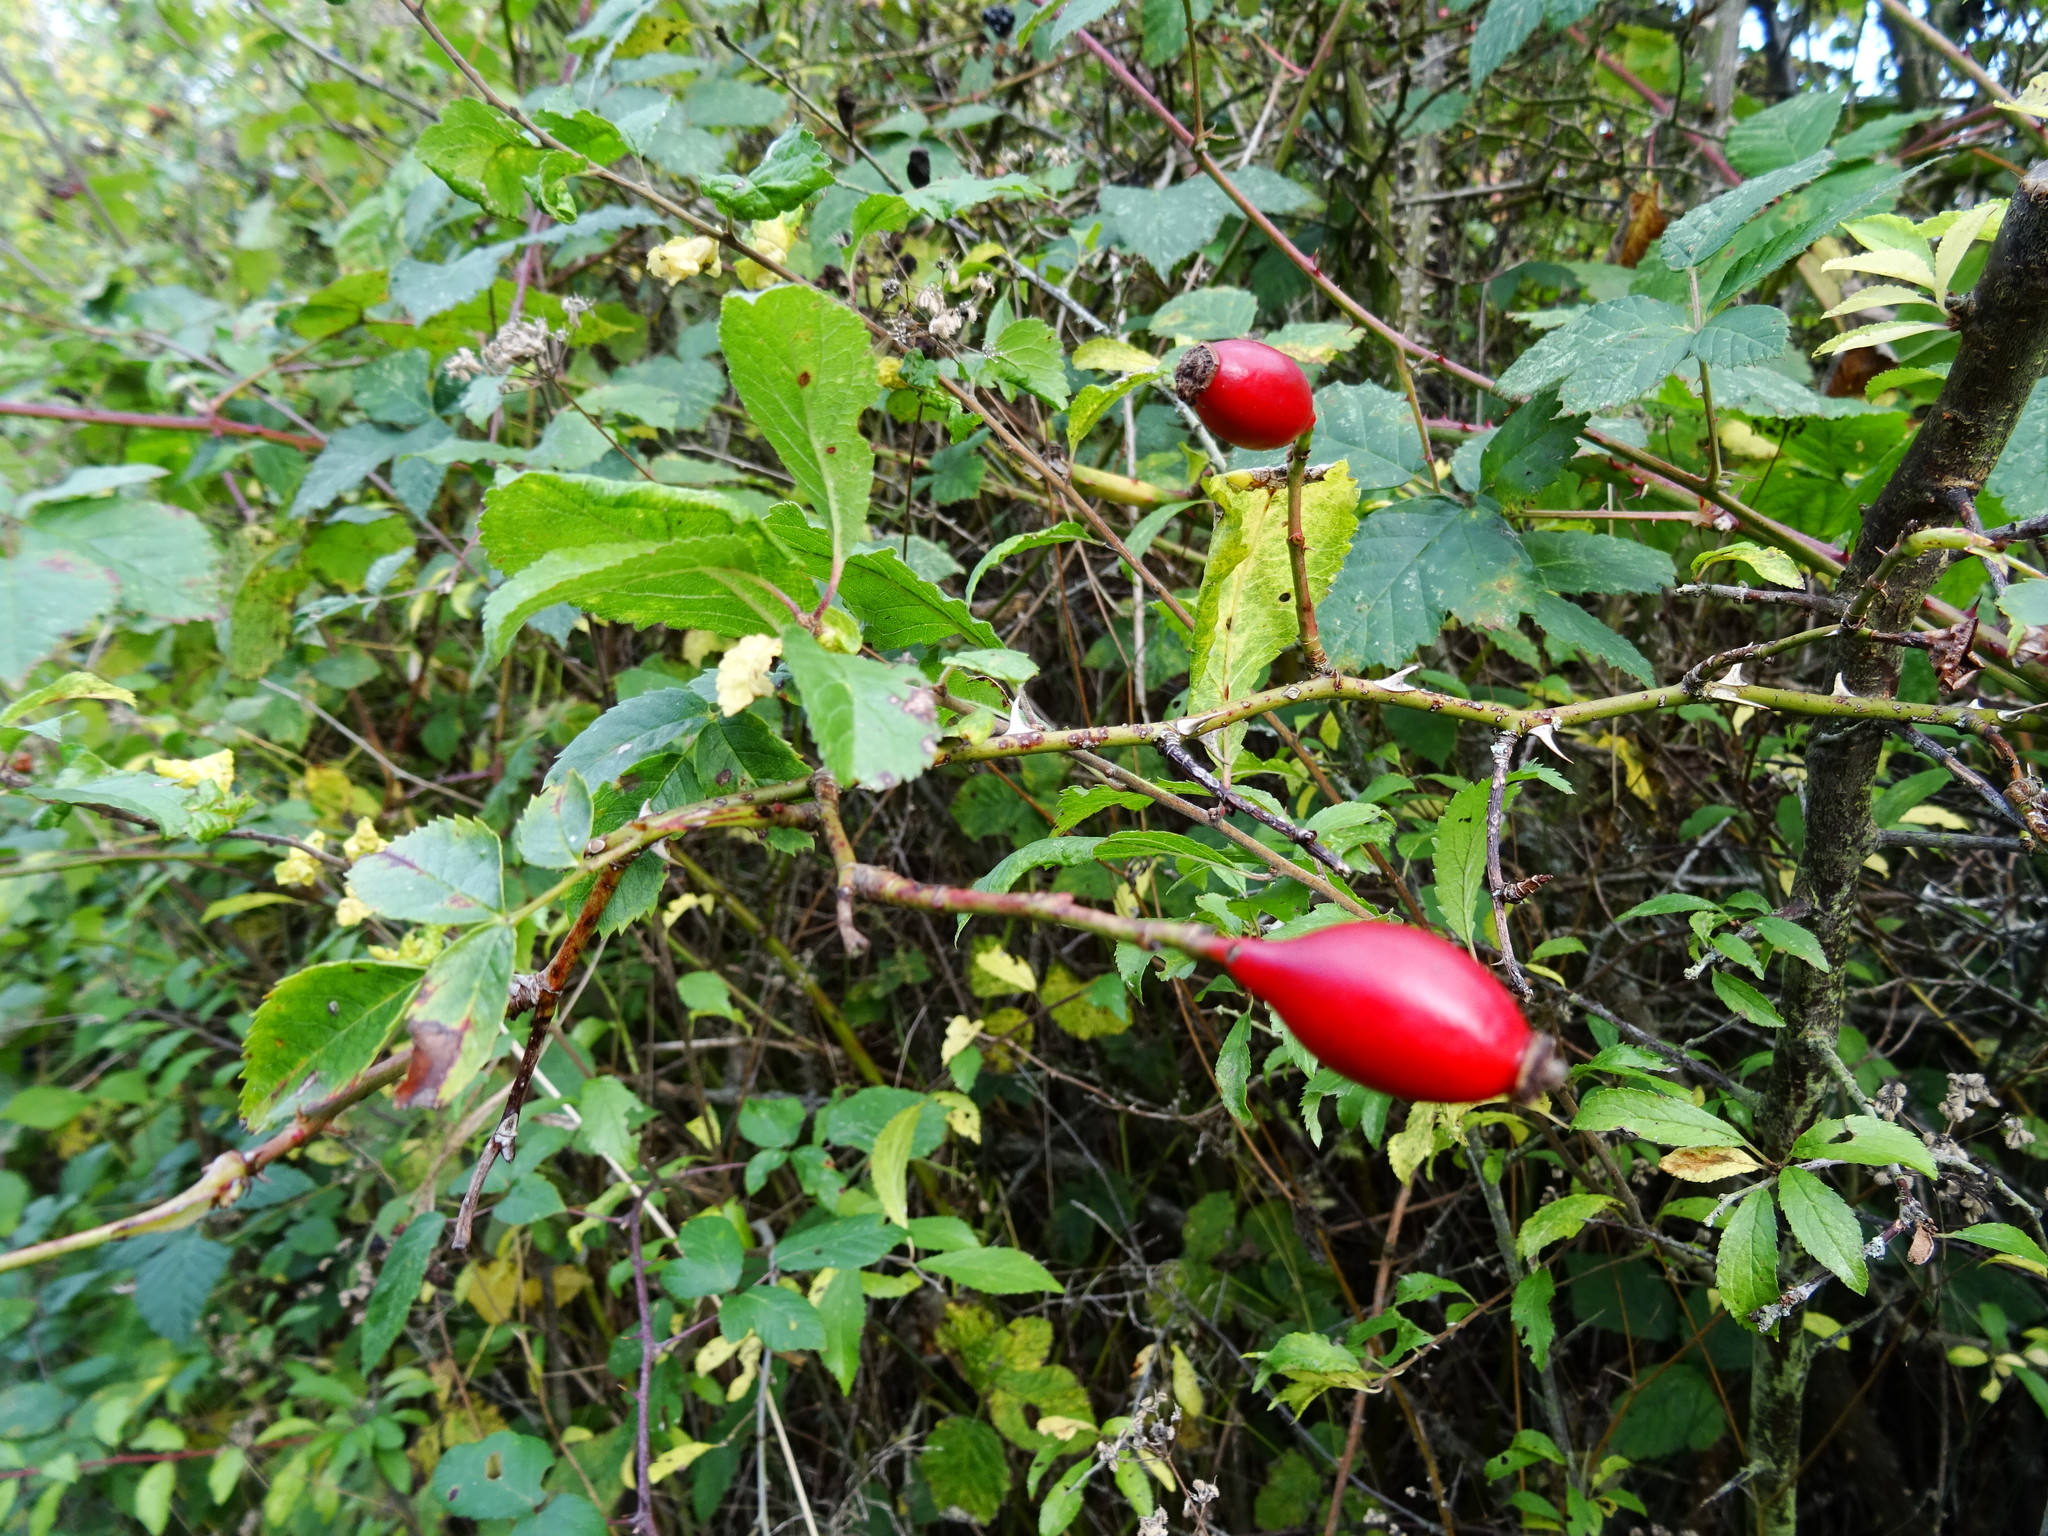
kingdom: Plantae
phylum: Tracheophyta
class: Magnoliopsida
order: Rosales
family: Rosaceae
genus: Rosa
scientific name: Rosa canina
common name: Dog rose
